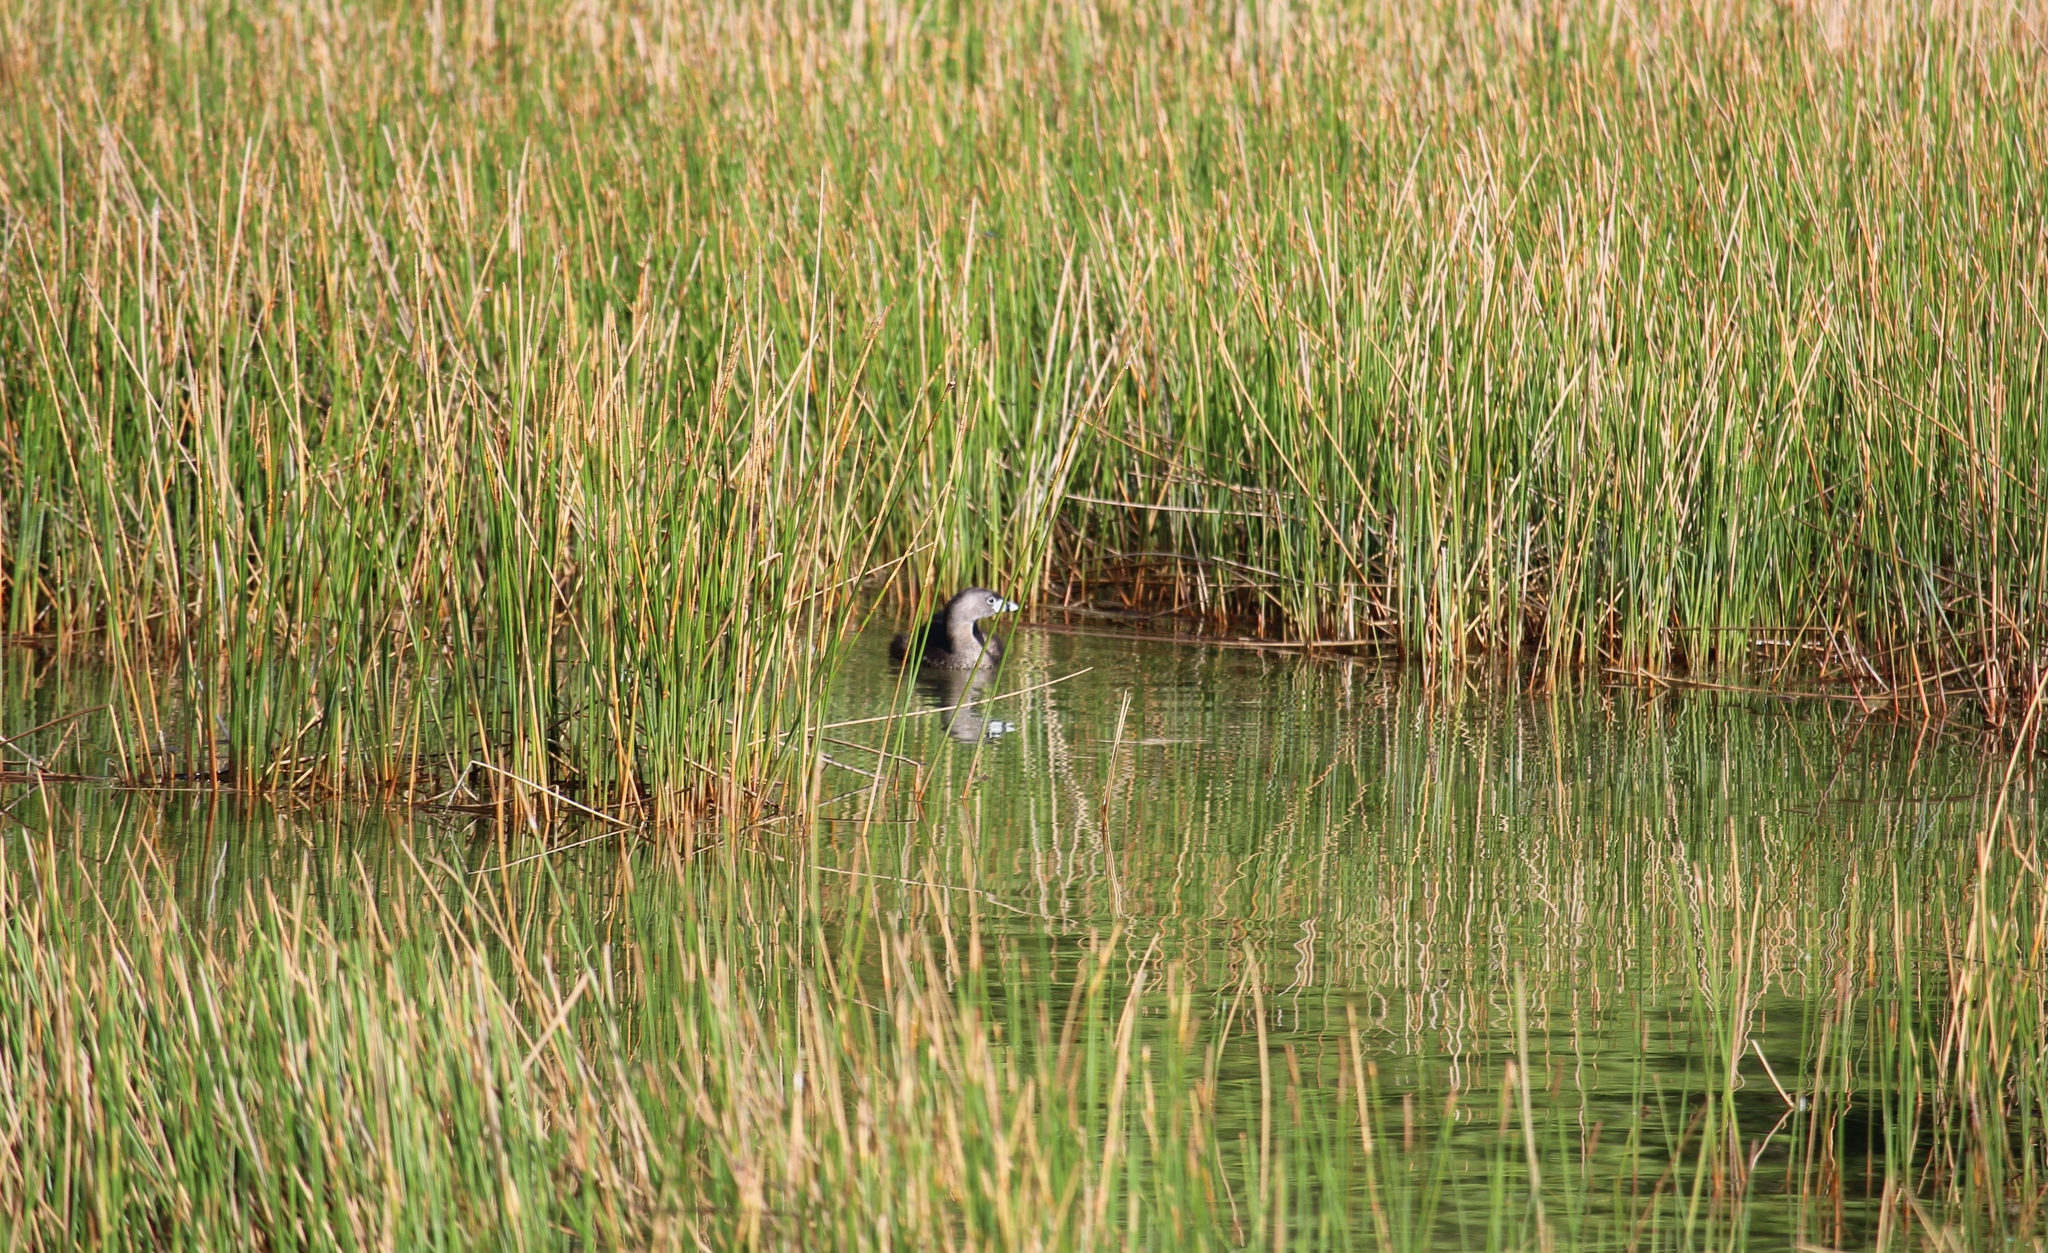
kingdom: Animalia
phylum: Chordata
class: Aves
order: Podicipediformes
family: Podicipedidae
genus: Podilymbus
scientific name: Podilymbus podiceps
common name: Pied-billed grebe
